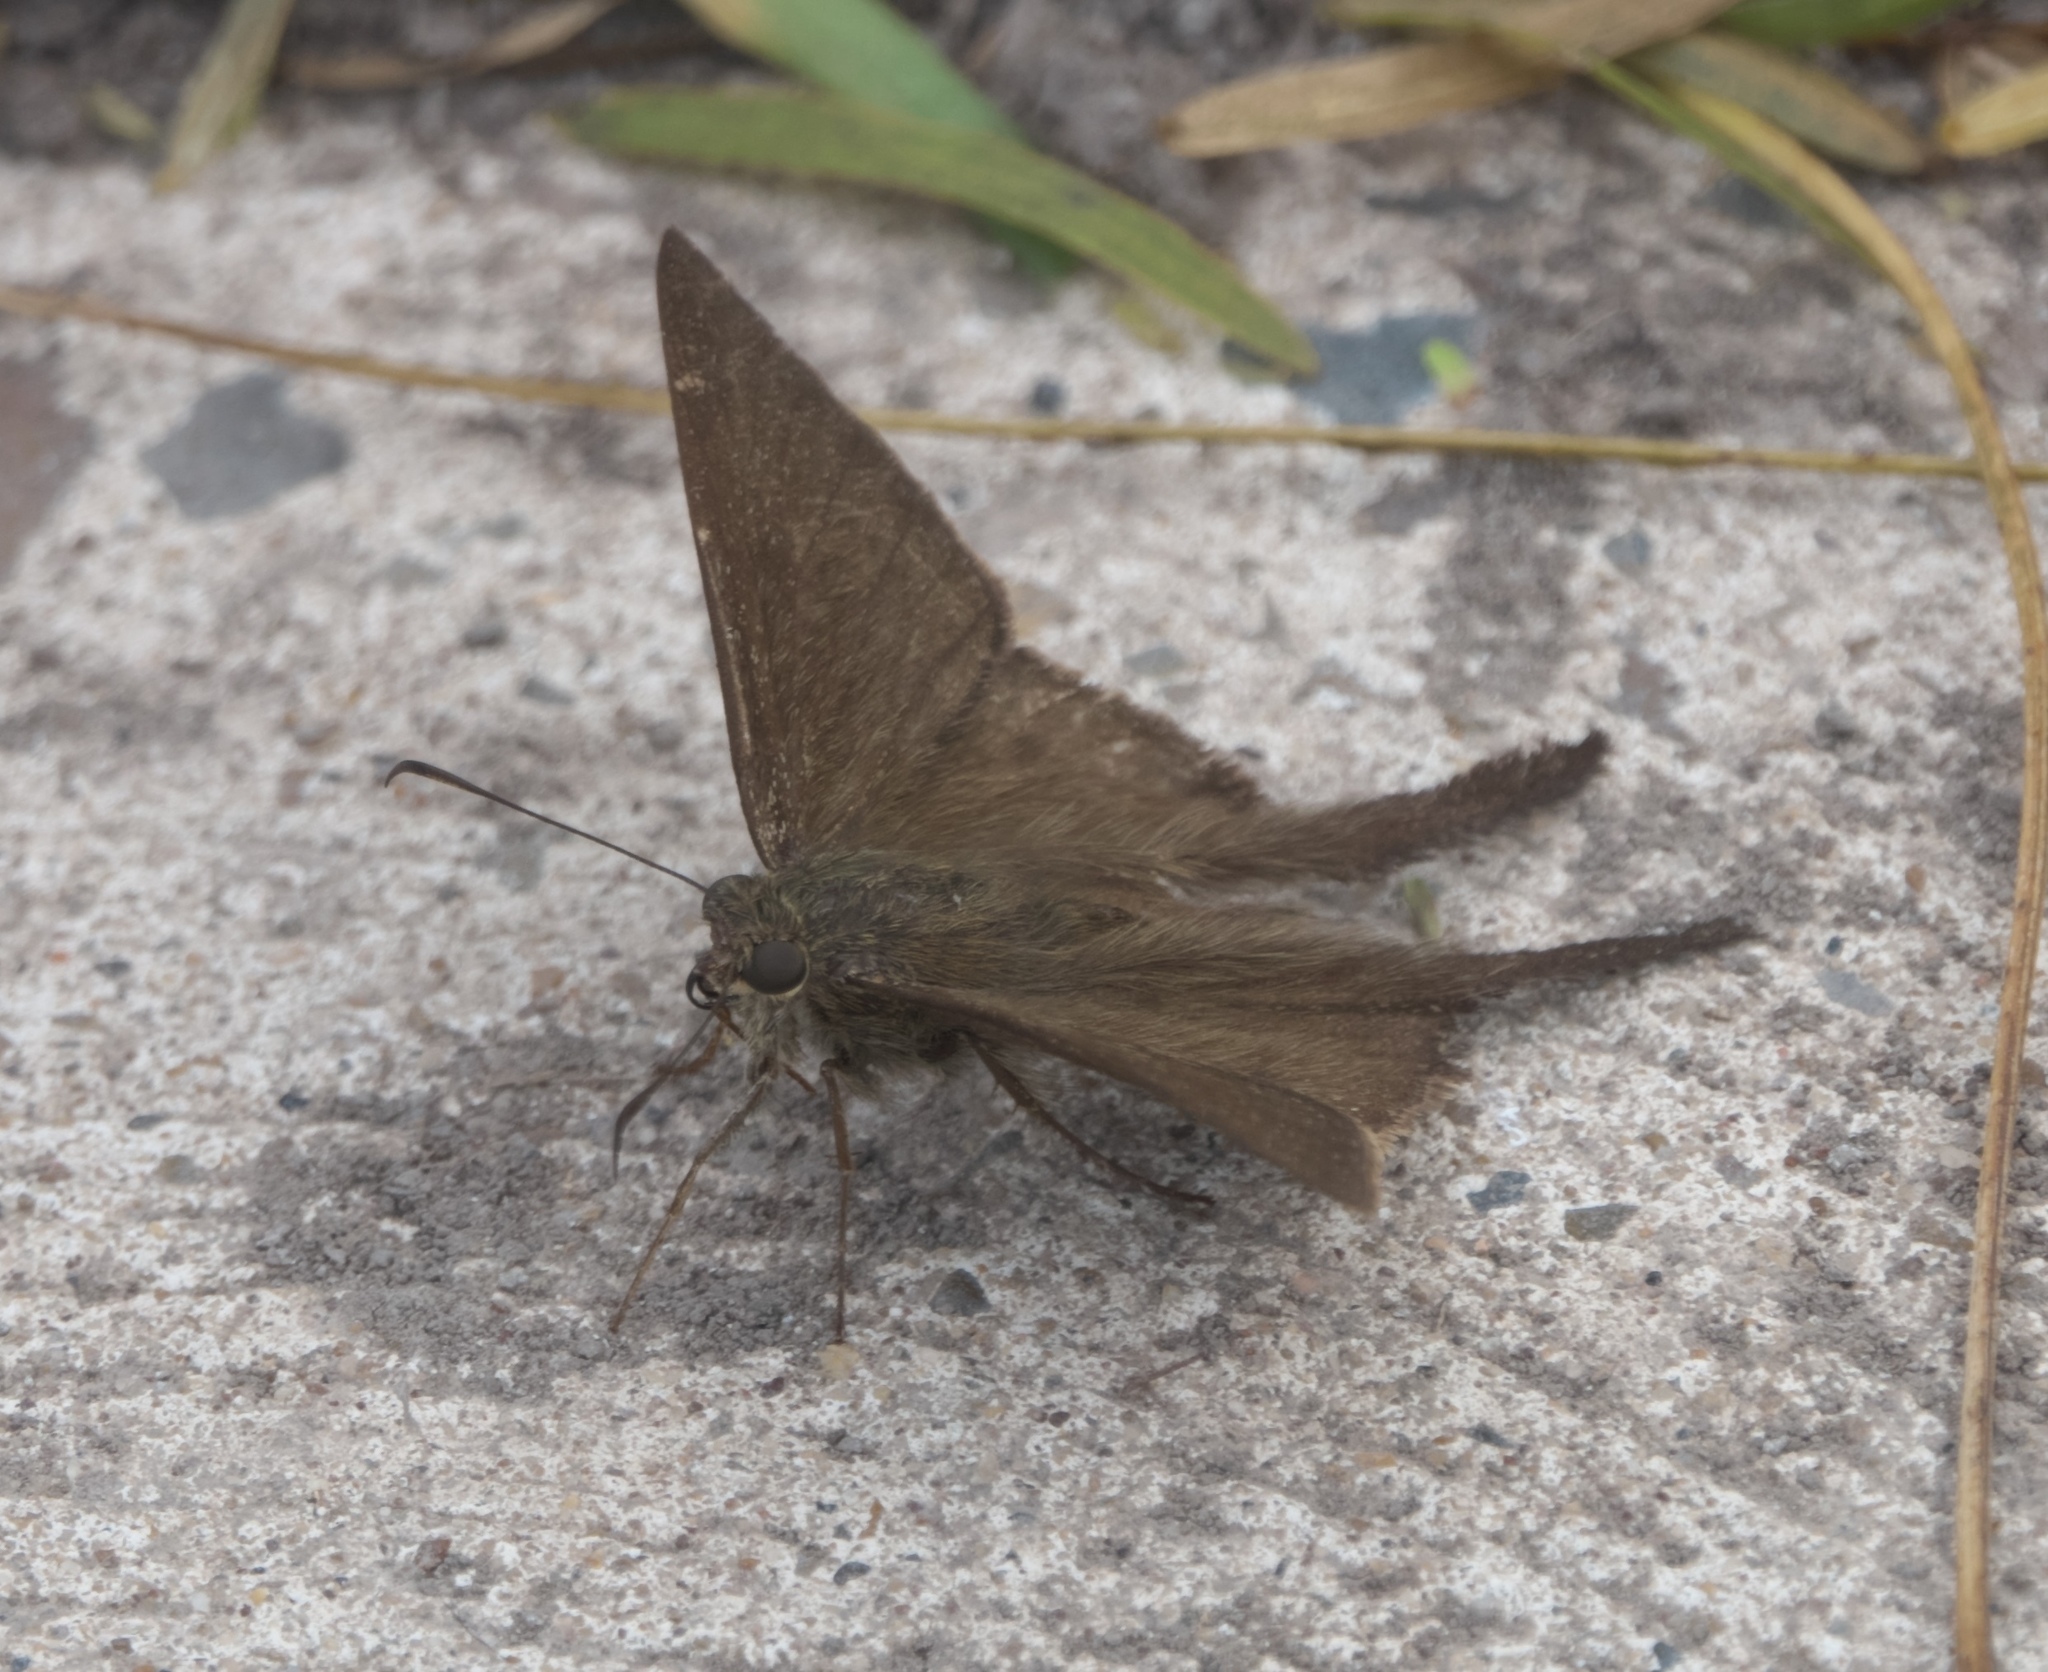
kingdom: Animalia
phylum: Arthropoda
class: Insecta
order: Lepidoptera
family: Hesperiidae
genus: Urbanus
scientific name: Urbanus procne
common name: Brown longtail
